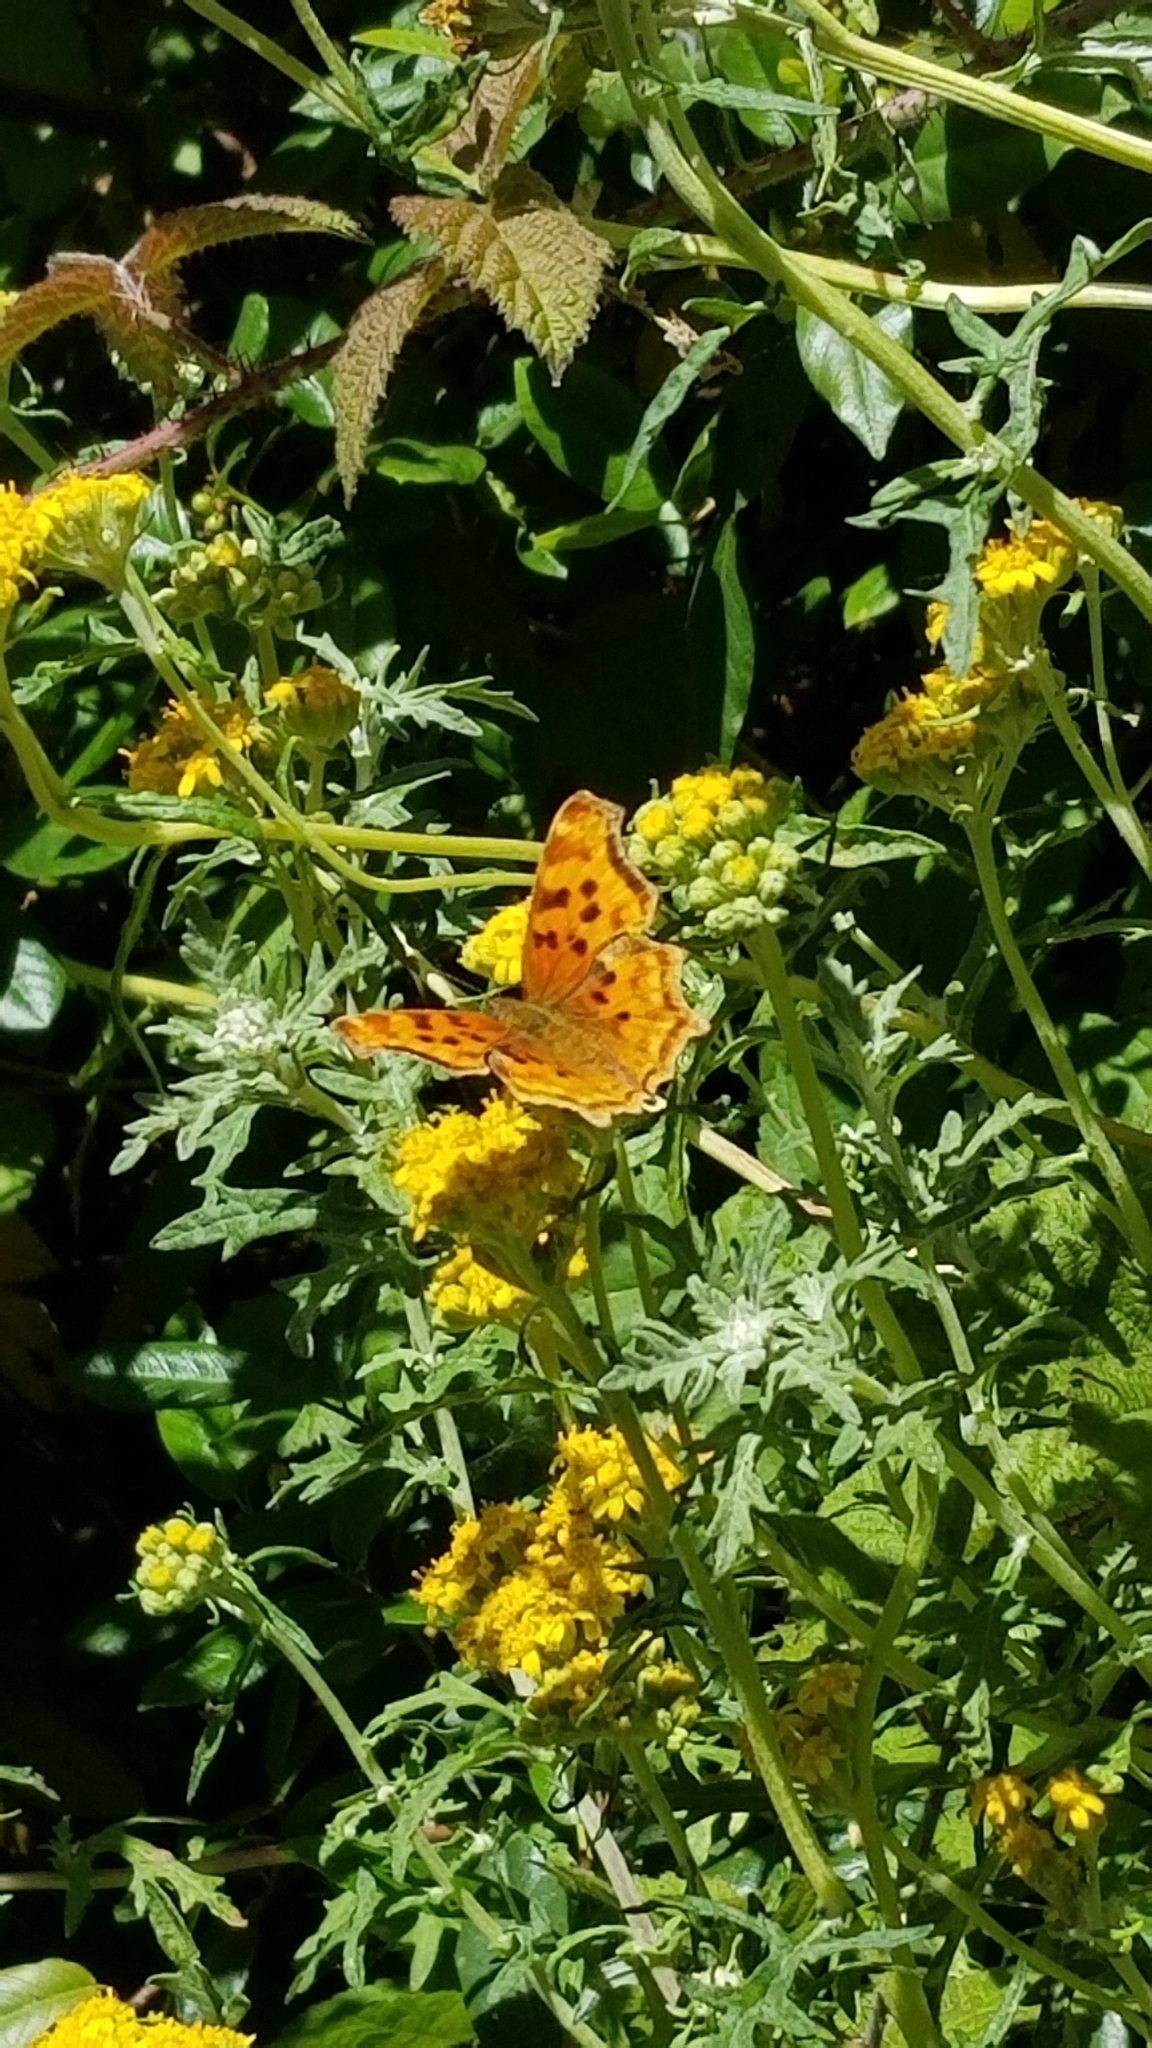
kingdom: Animalia
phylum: Arthropoda
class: Insecta
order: Lepidoptera
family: Nymphalidae
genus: Polygonia
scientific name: Polygonia satyrus
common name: Satyr angle wing
